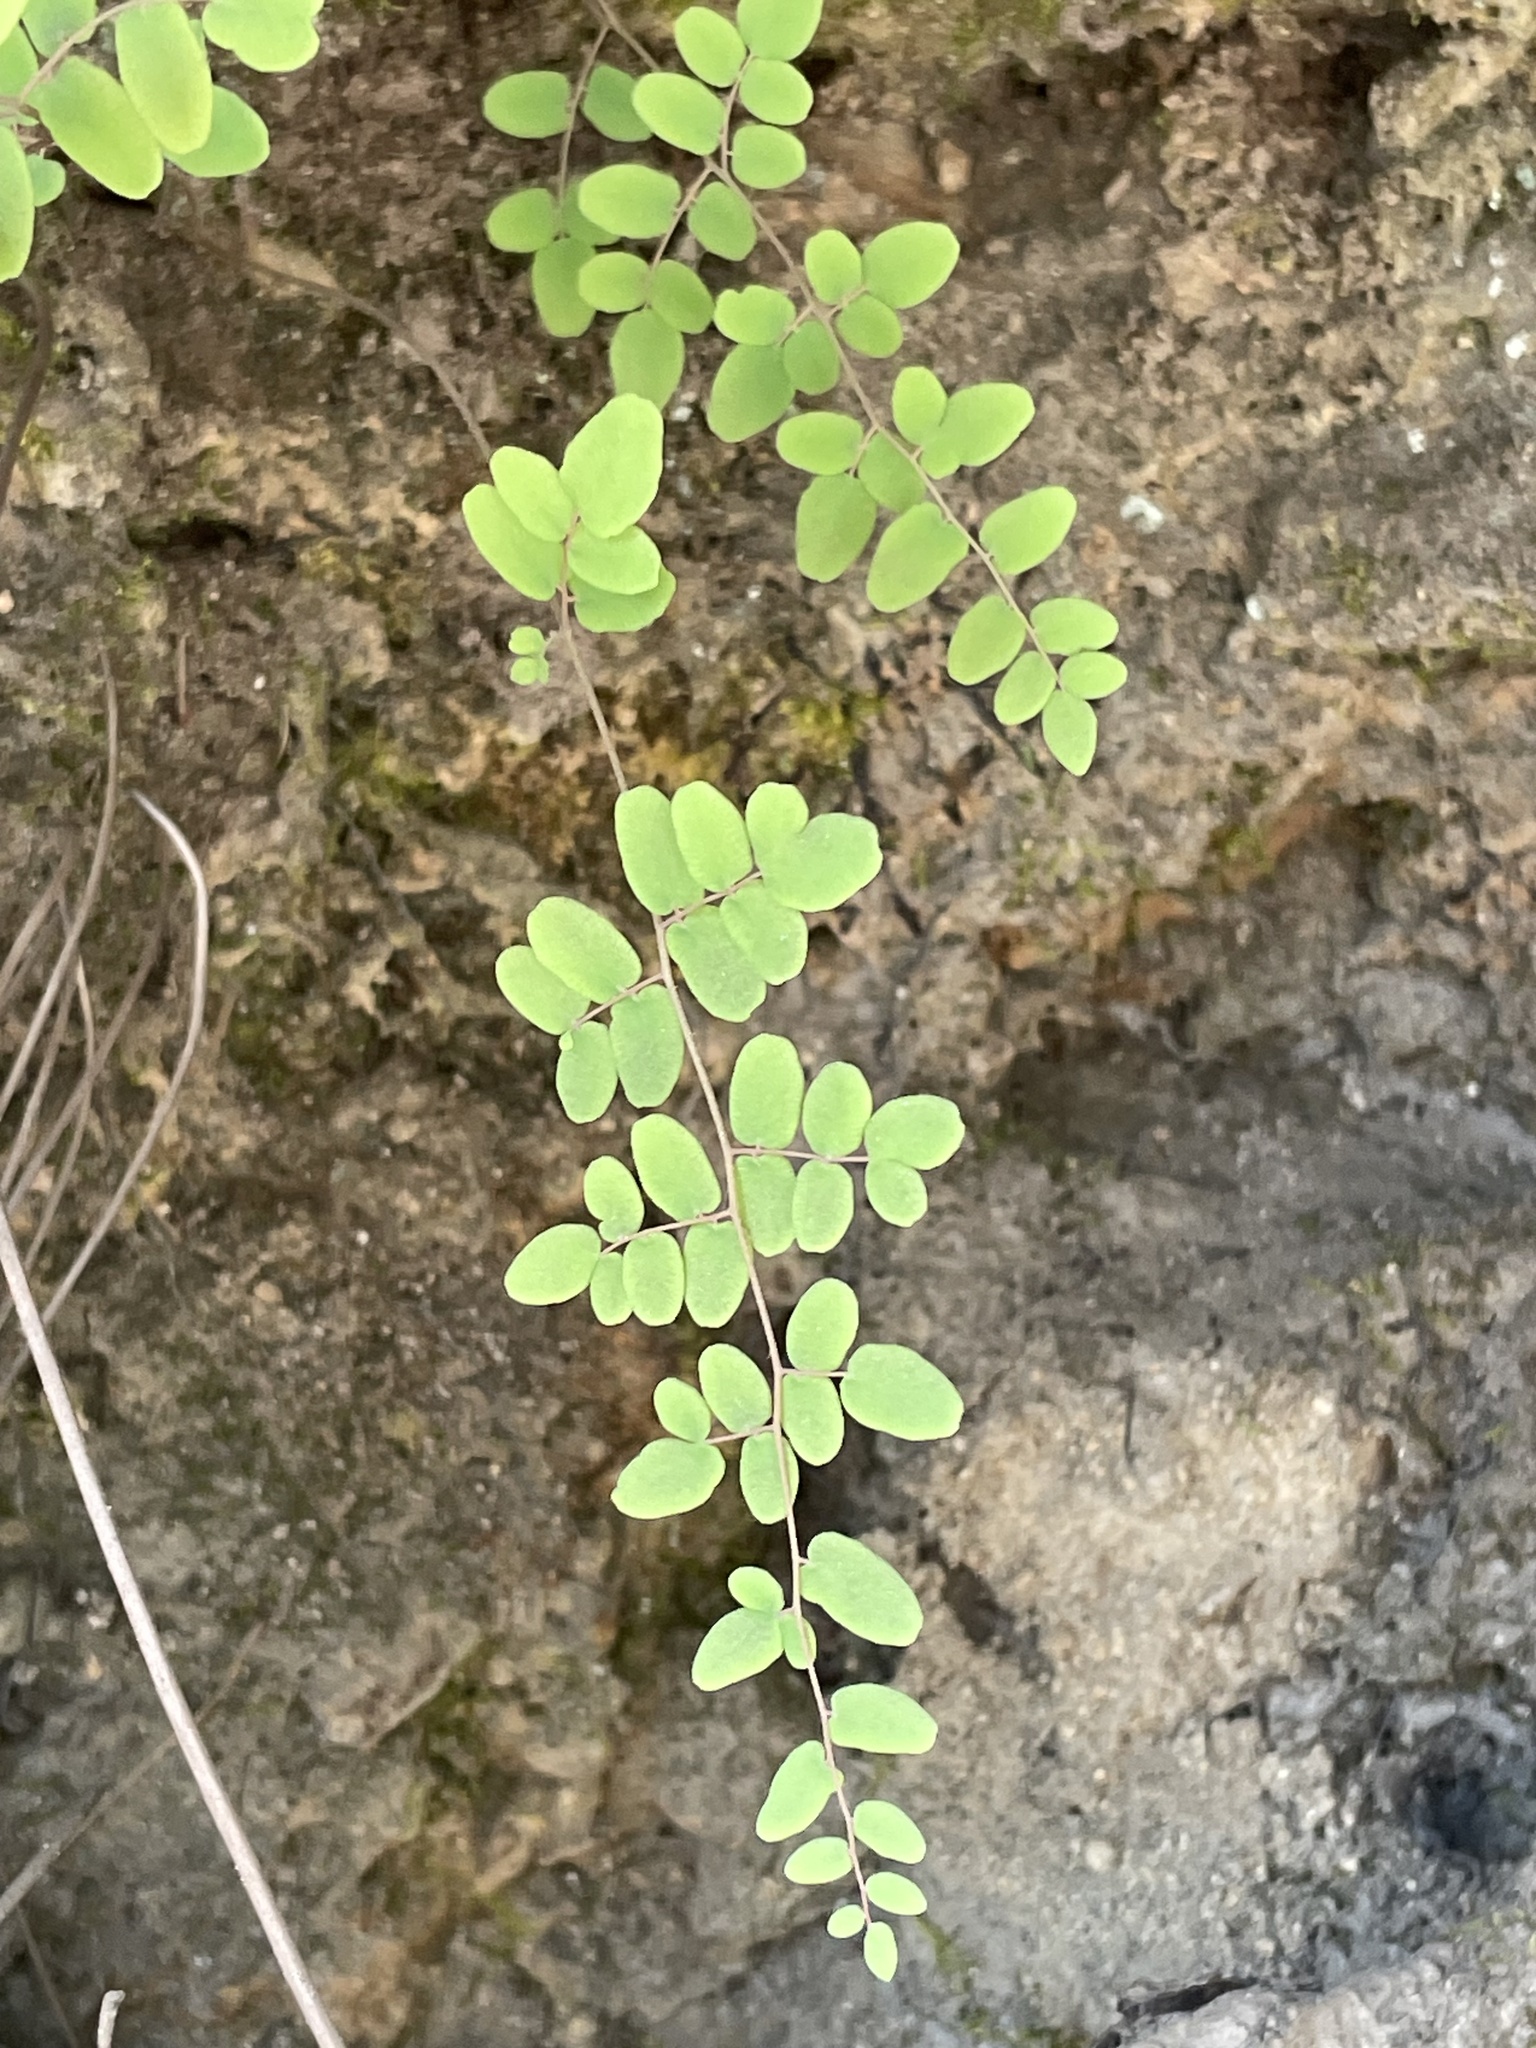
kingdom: Plantae
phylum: Tracheophyta
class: Polypodiopsida
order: Polypodiales
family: Pteridaceae
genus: Pellaea
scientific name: Pellaea andromedifolia
